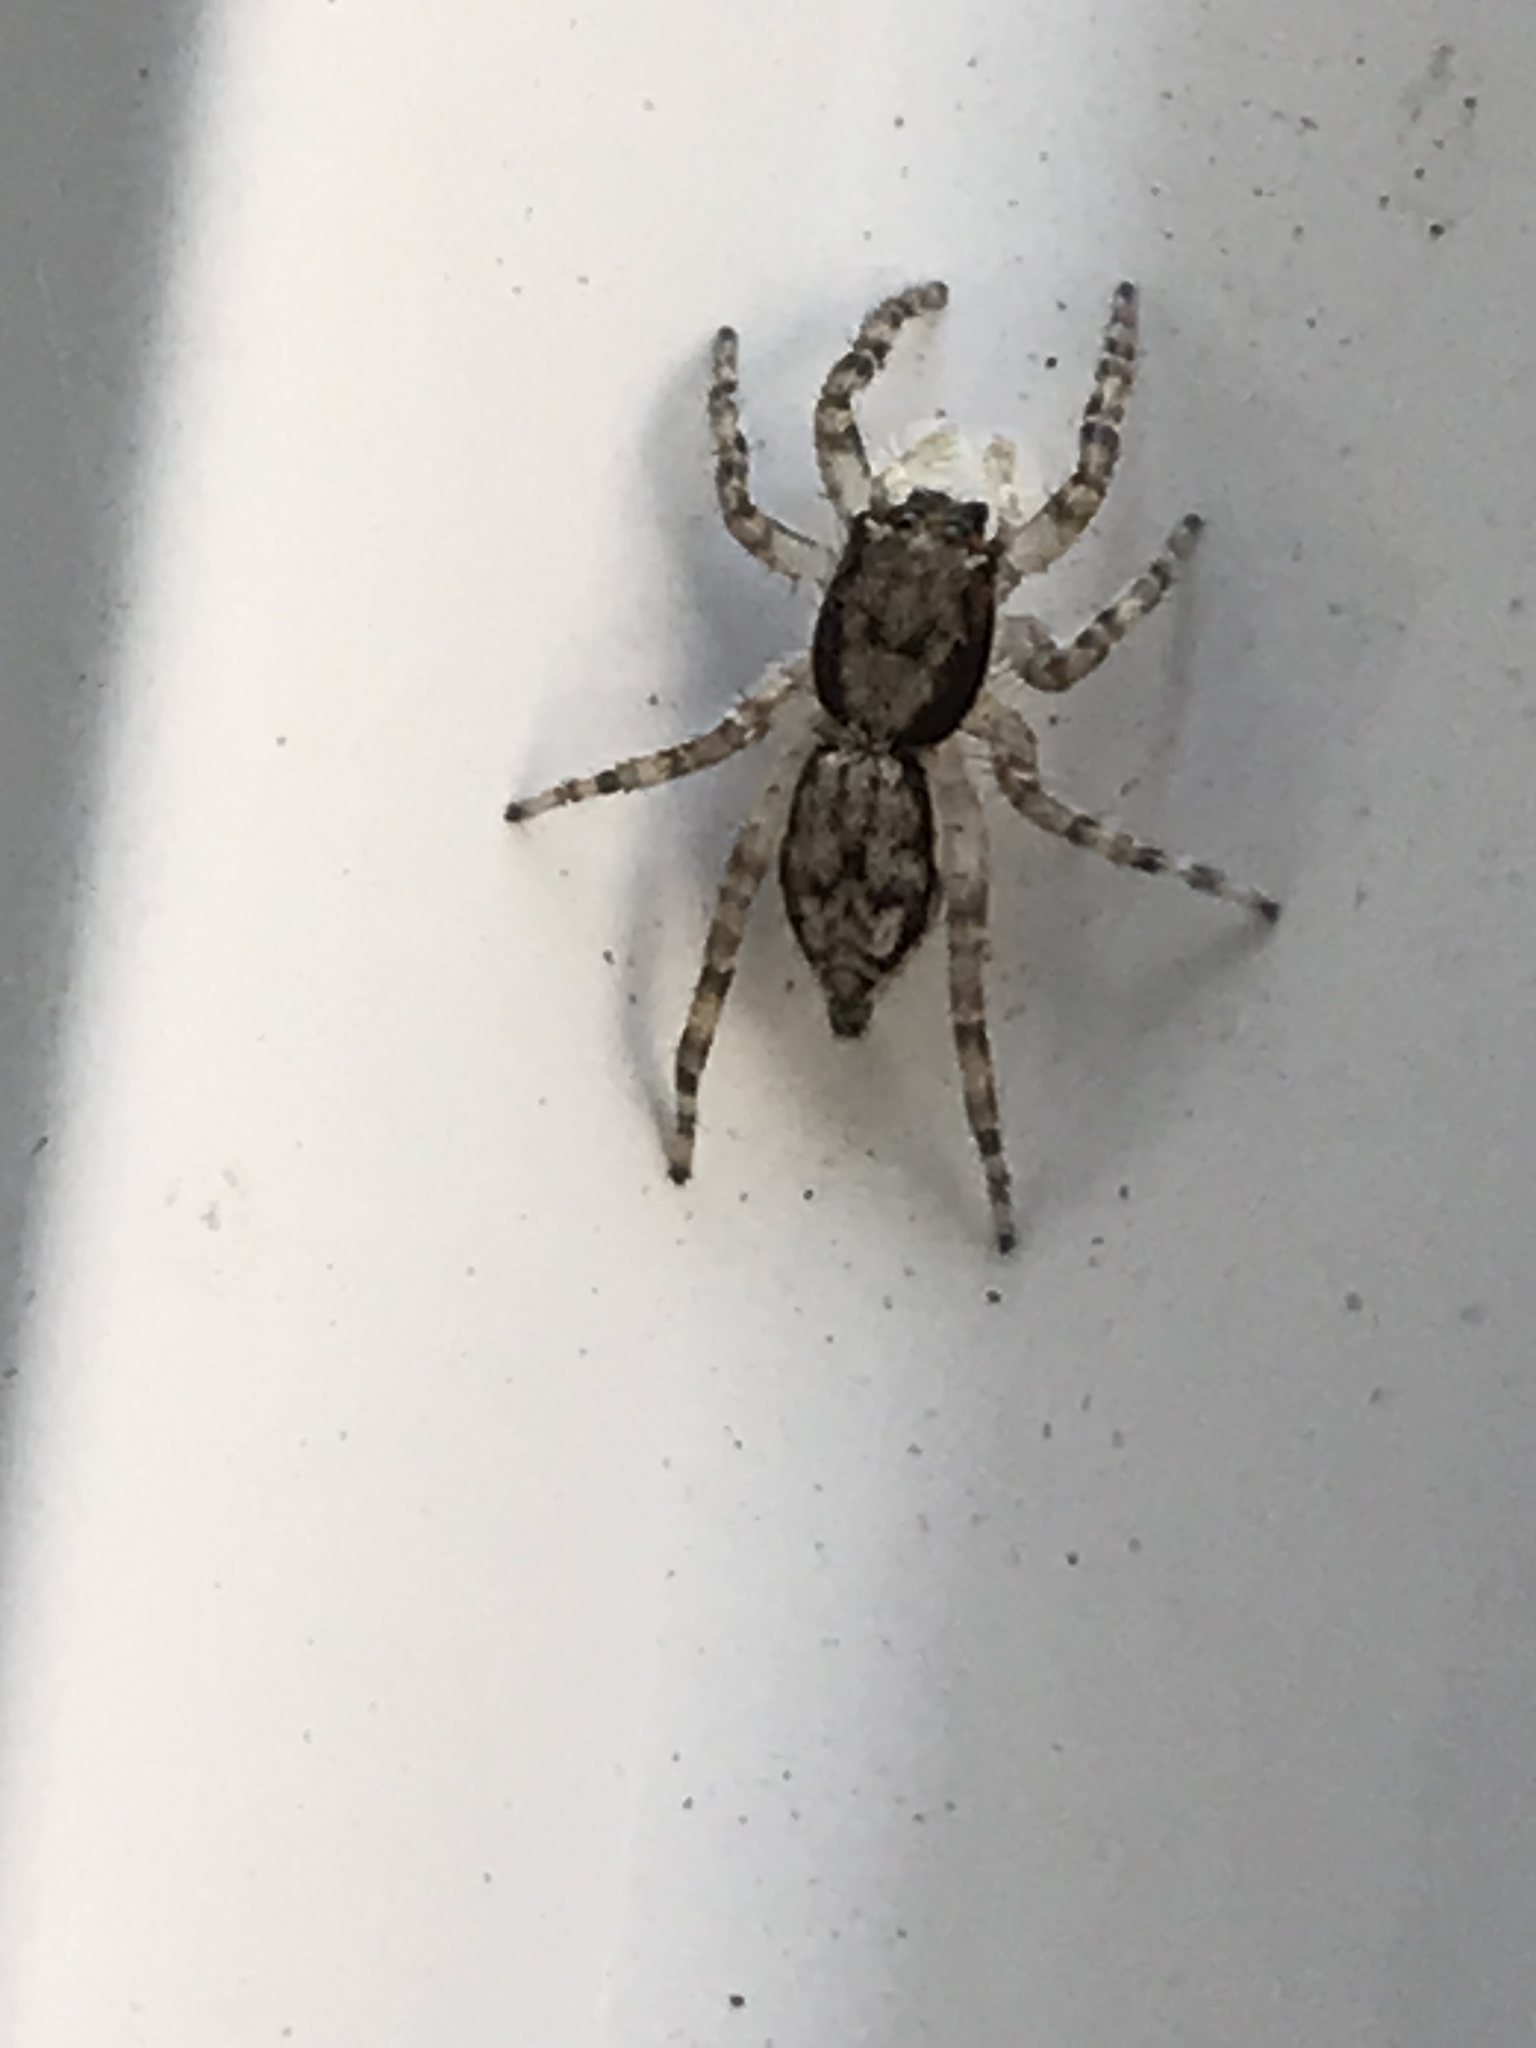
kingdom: Animalia
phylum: Arthropoda
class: Arachnida
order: Araneae
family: Salticidae
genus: Menemerus
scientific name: Menemerus bivittatus
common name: Gray wall jumper
